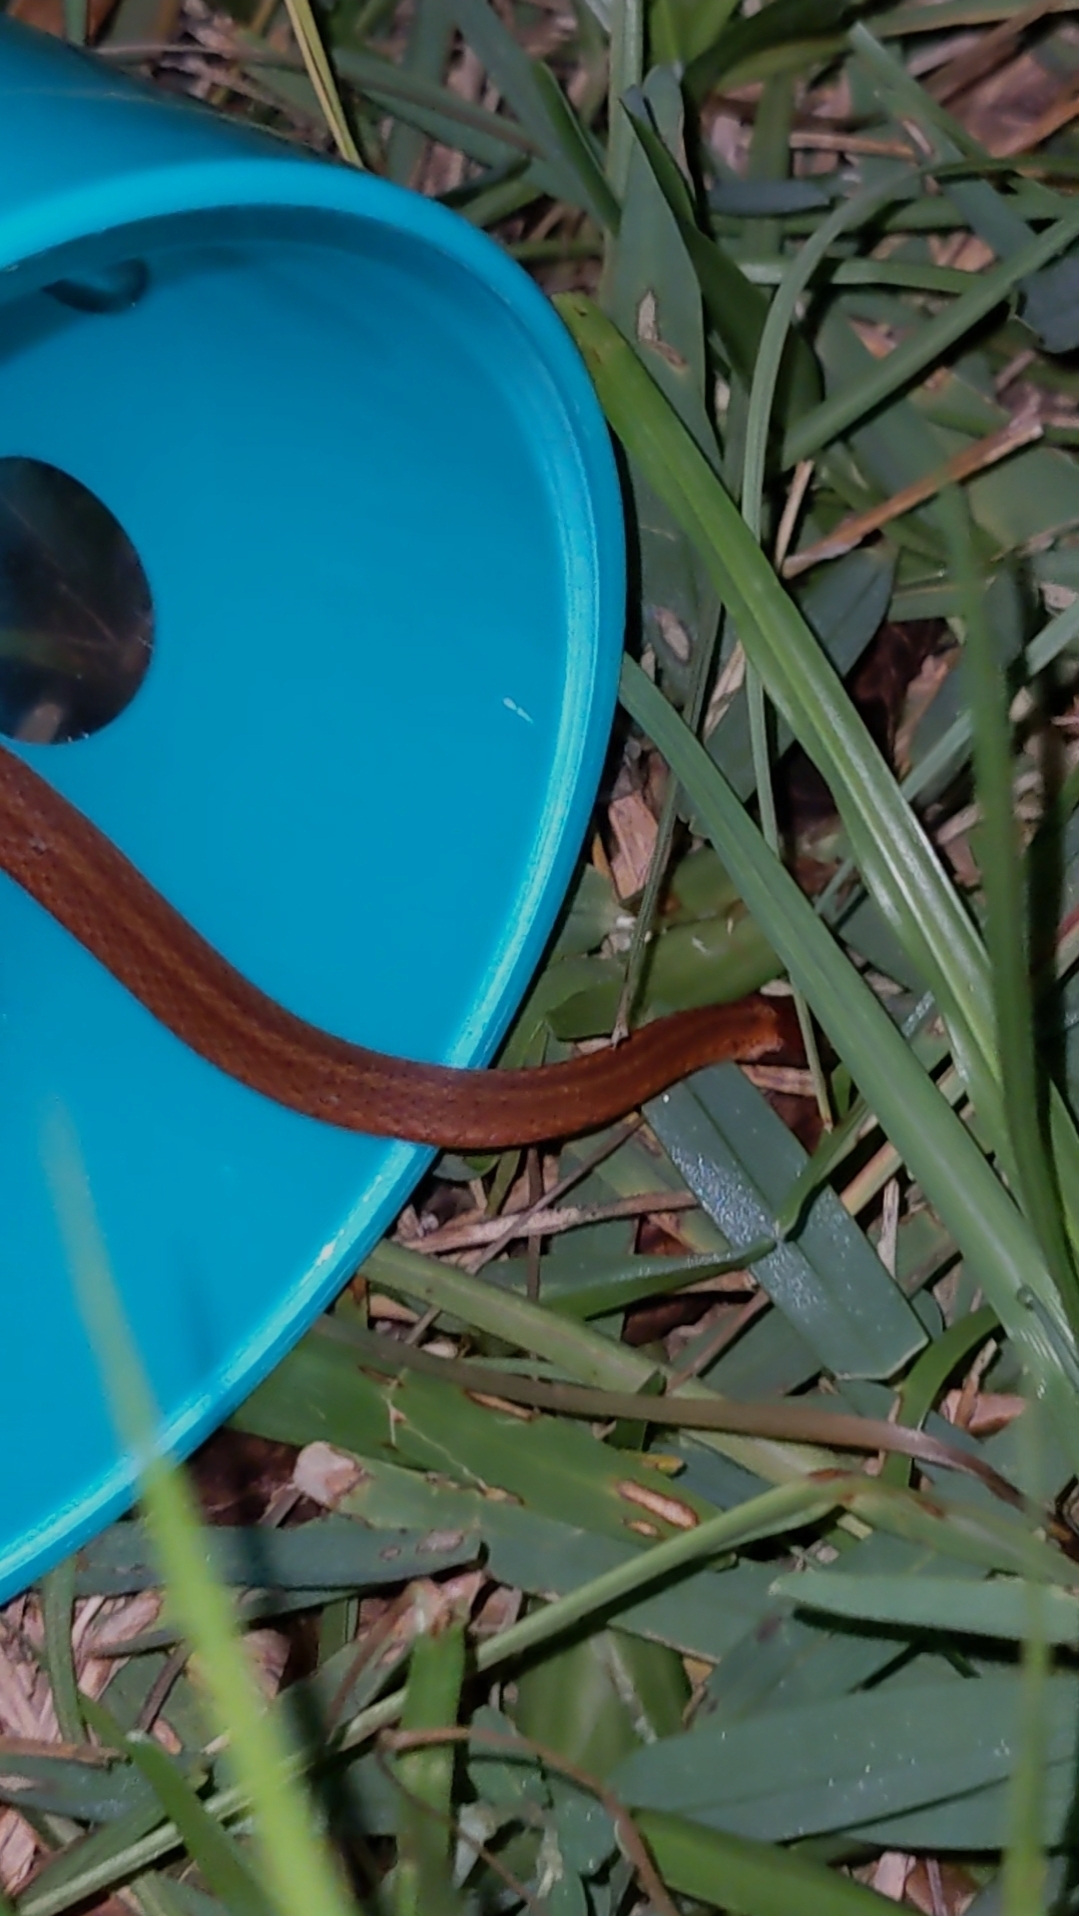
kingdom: Animalia
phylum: Chordata
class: Squamata
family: Colubridae
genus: Storeria
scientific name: Storeria occipitomaculata
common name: Redbelly snake
